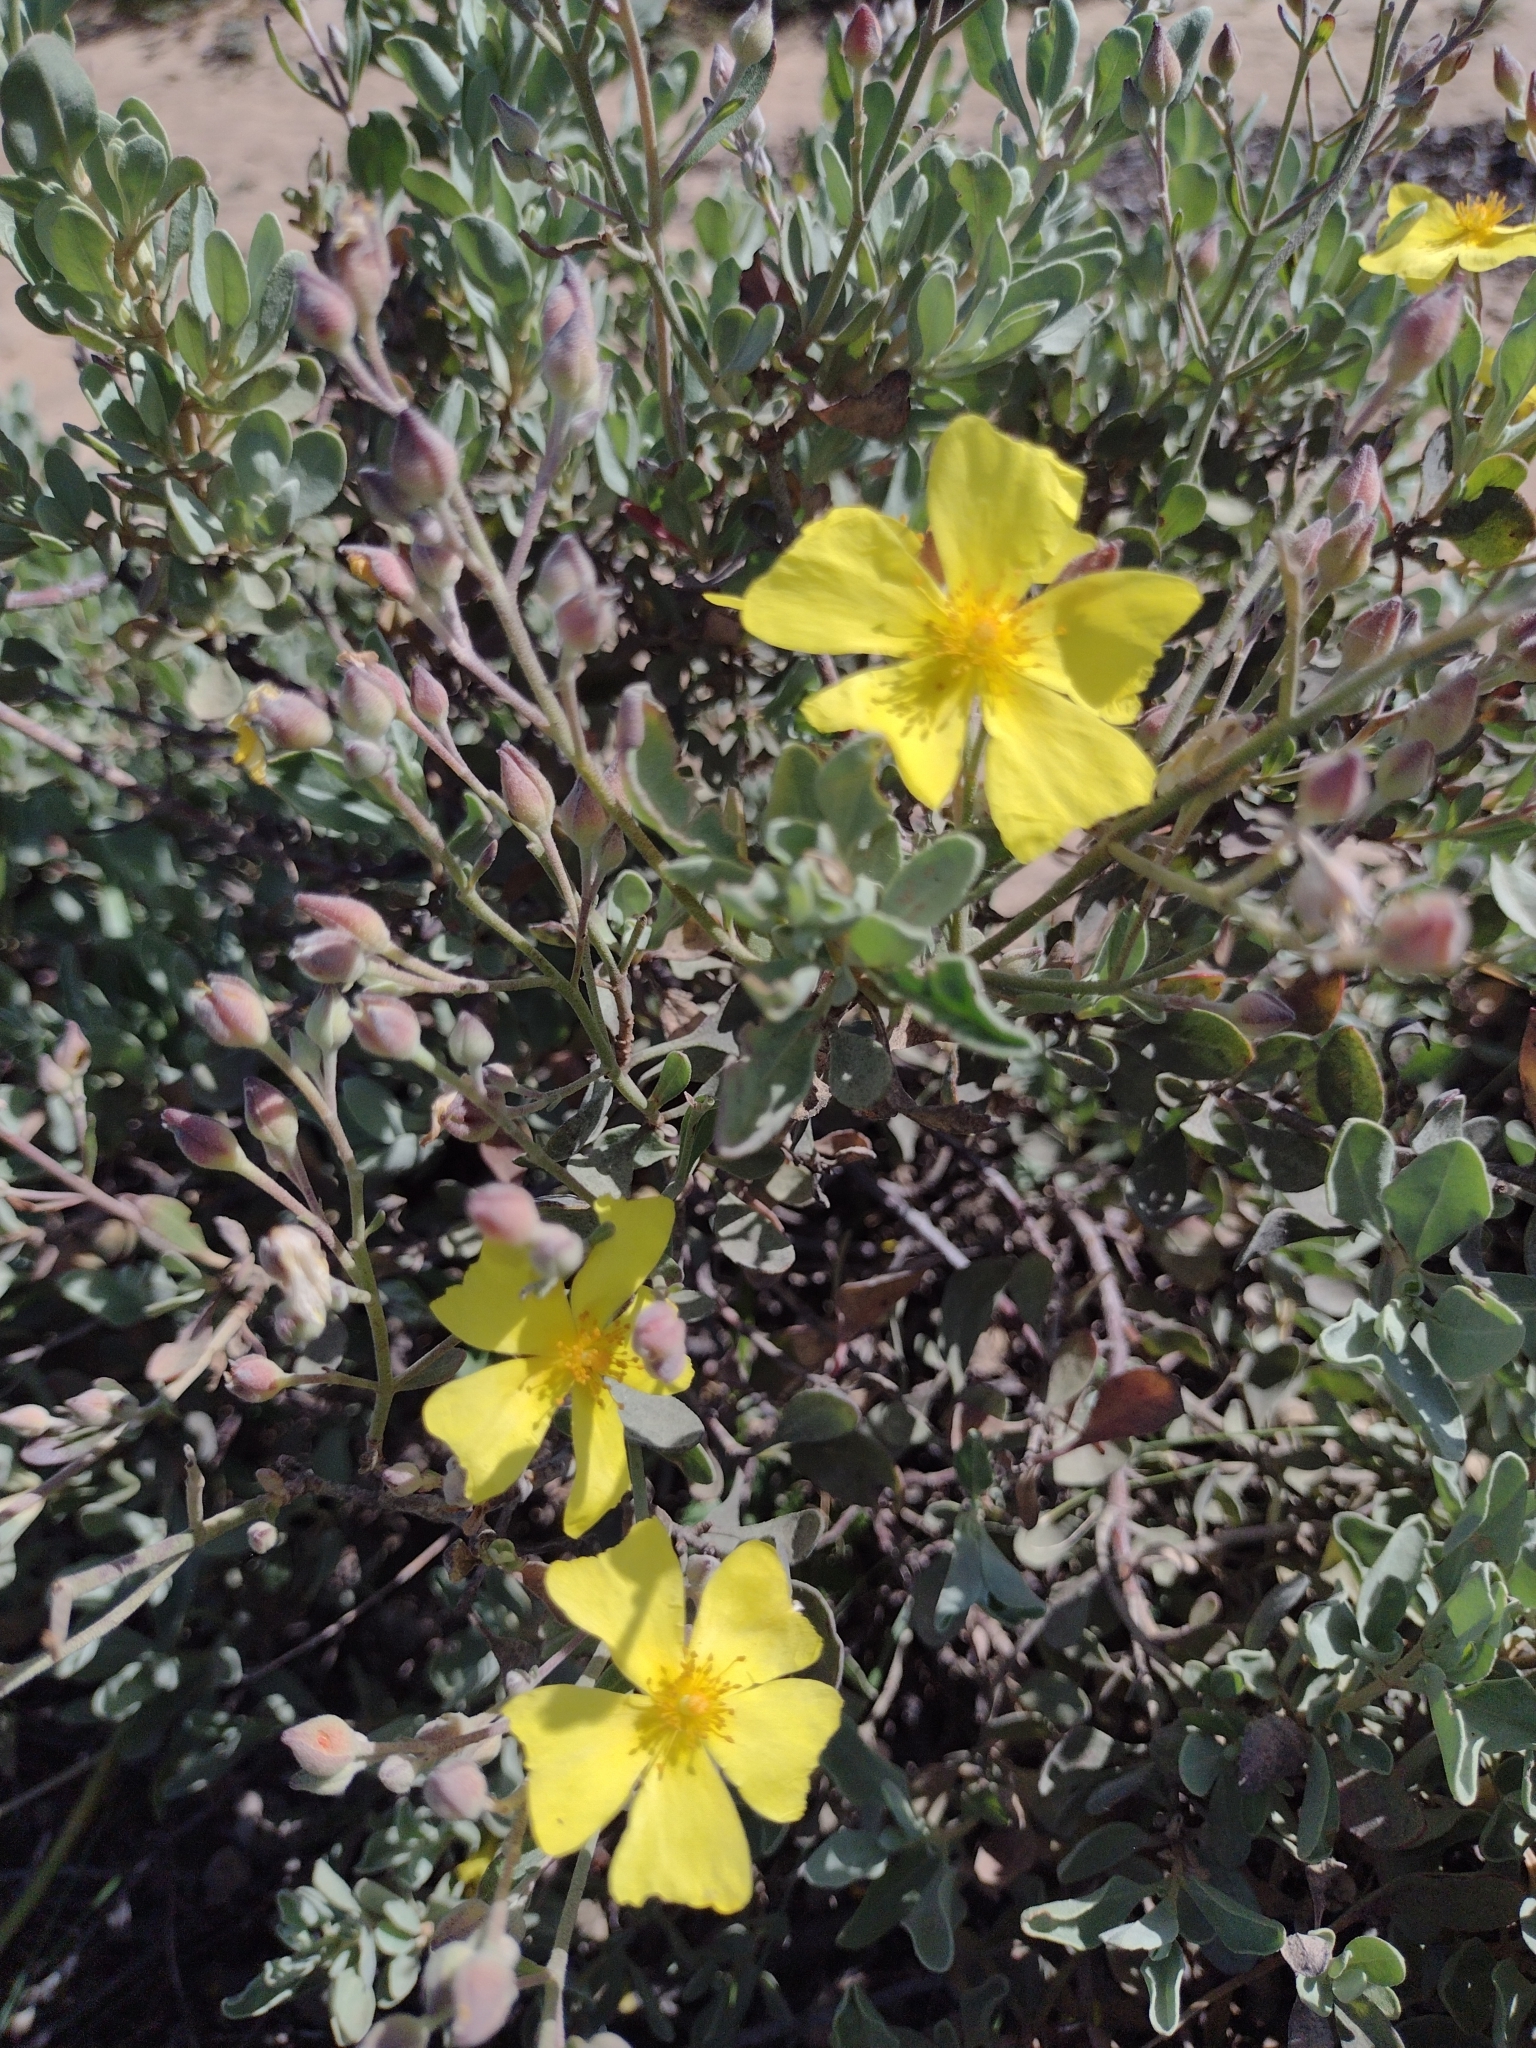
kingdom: Plantae
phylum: Tracheophyta
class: Magnoliopsida
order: Malvales
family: Cistaceae
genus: Halimium
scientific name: Halimium halimifolium
